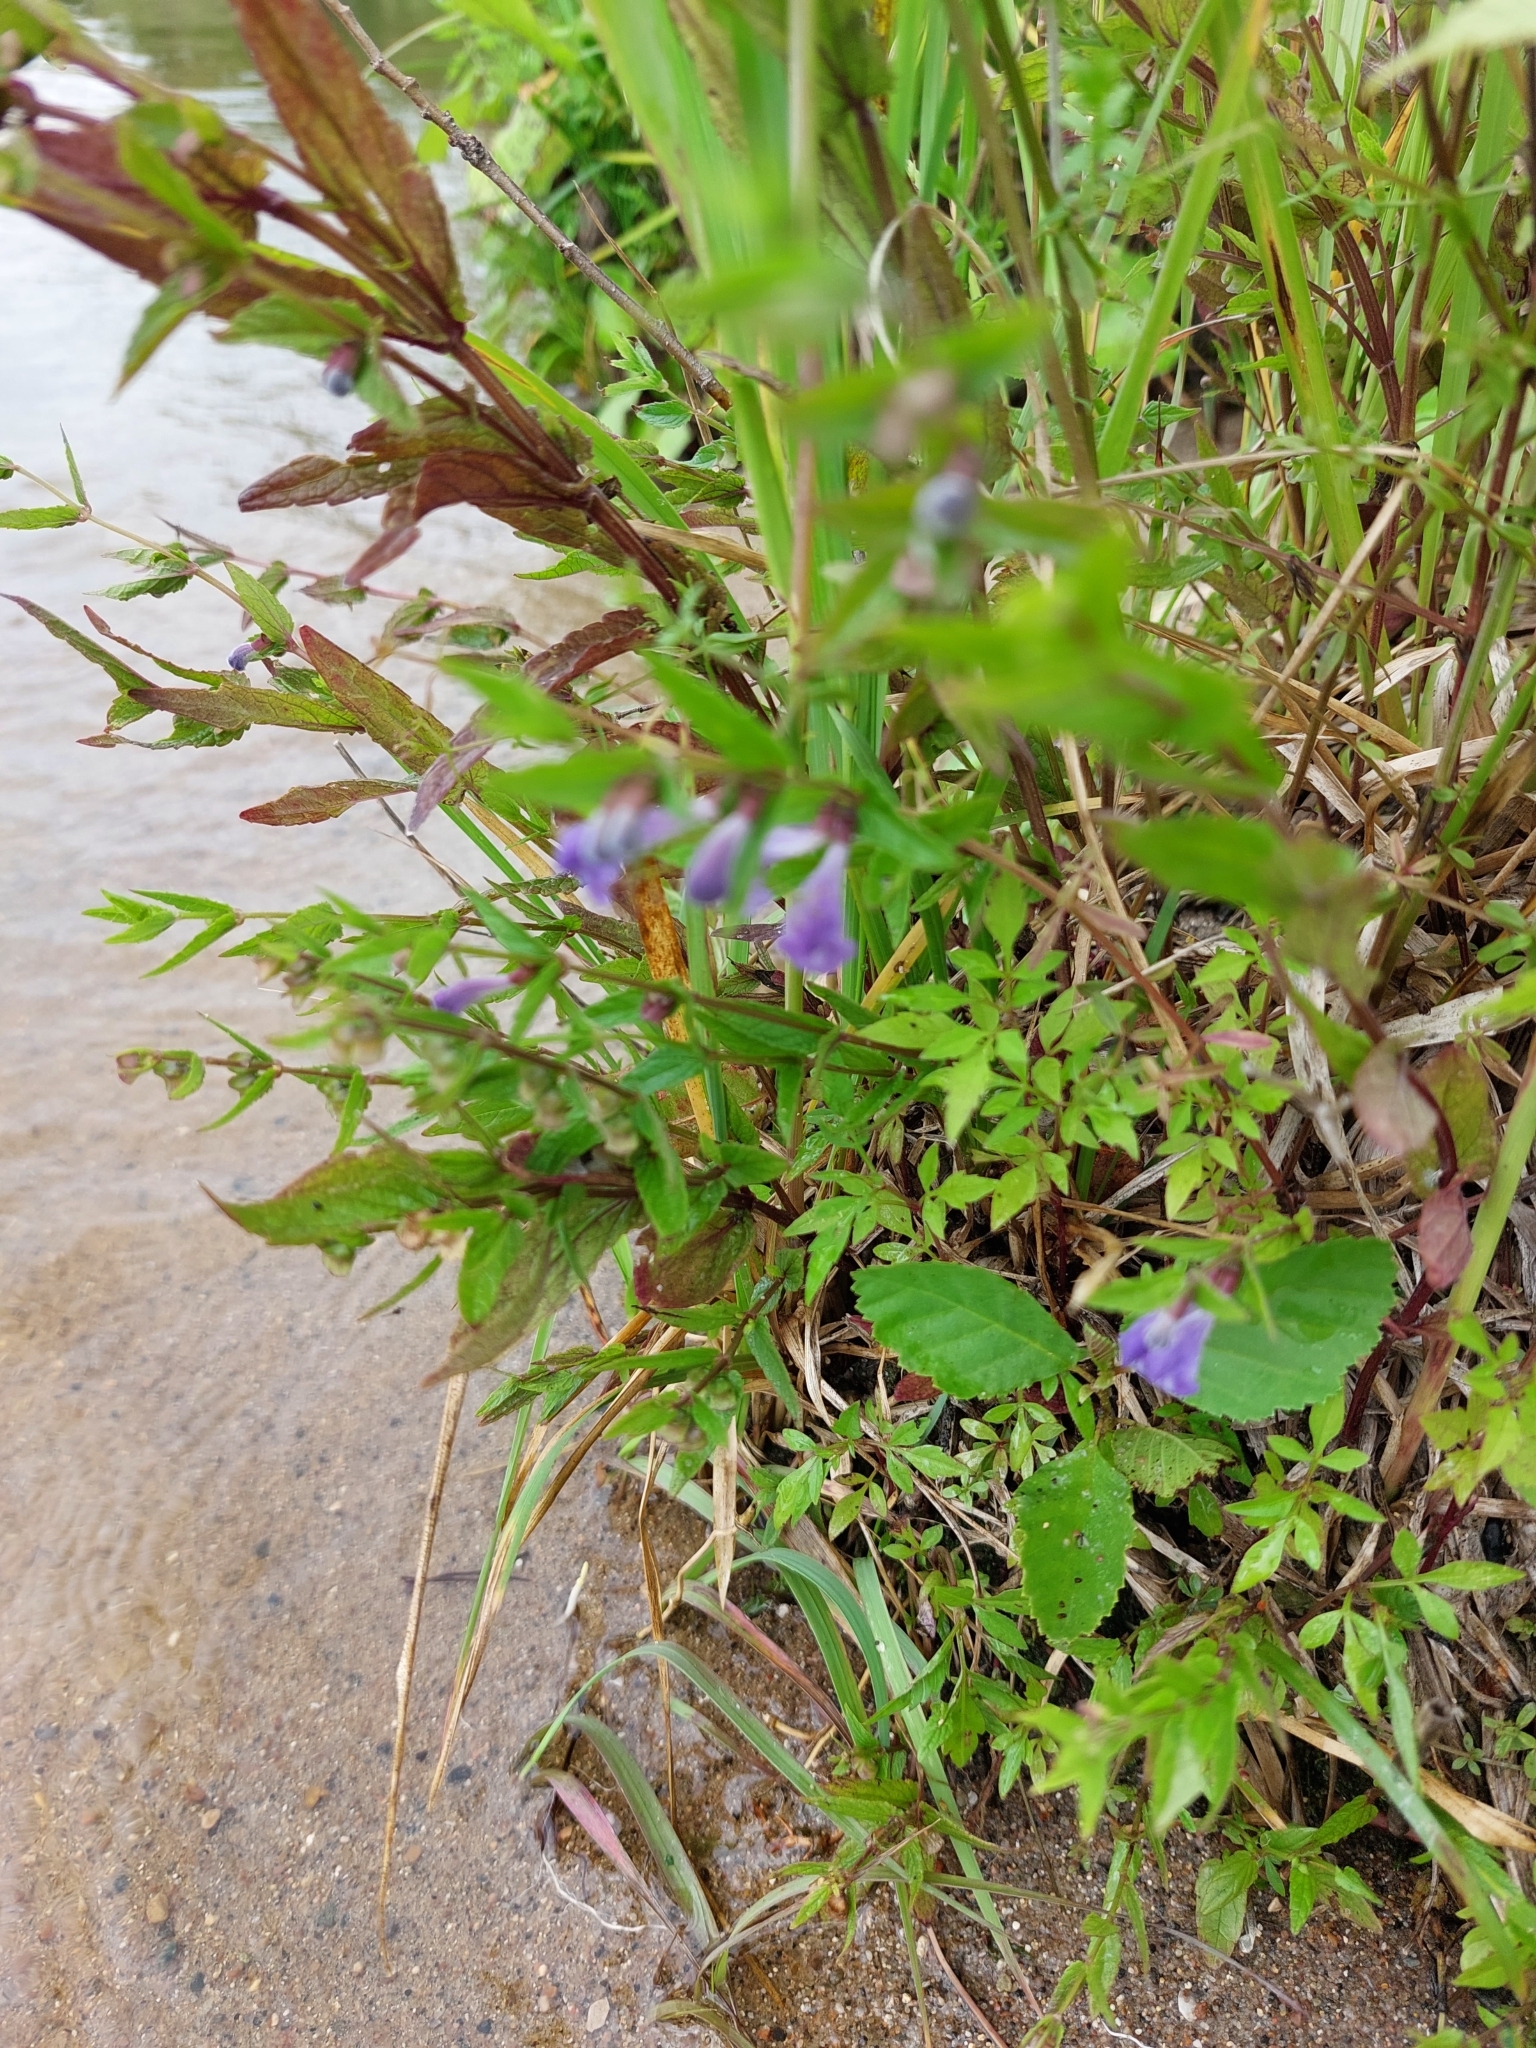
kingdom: Plantae
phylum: Tracheophyta
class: Magnoliopsida
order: Lamiales
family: Lamiaceae
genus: Scutellaria
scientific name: Scutellaria galericulata
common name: Skullcap
